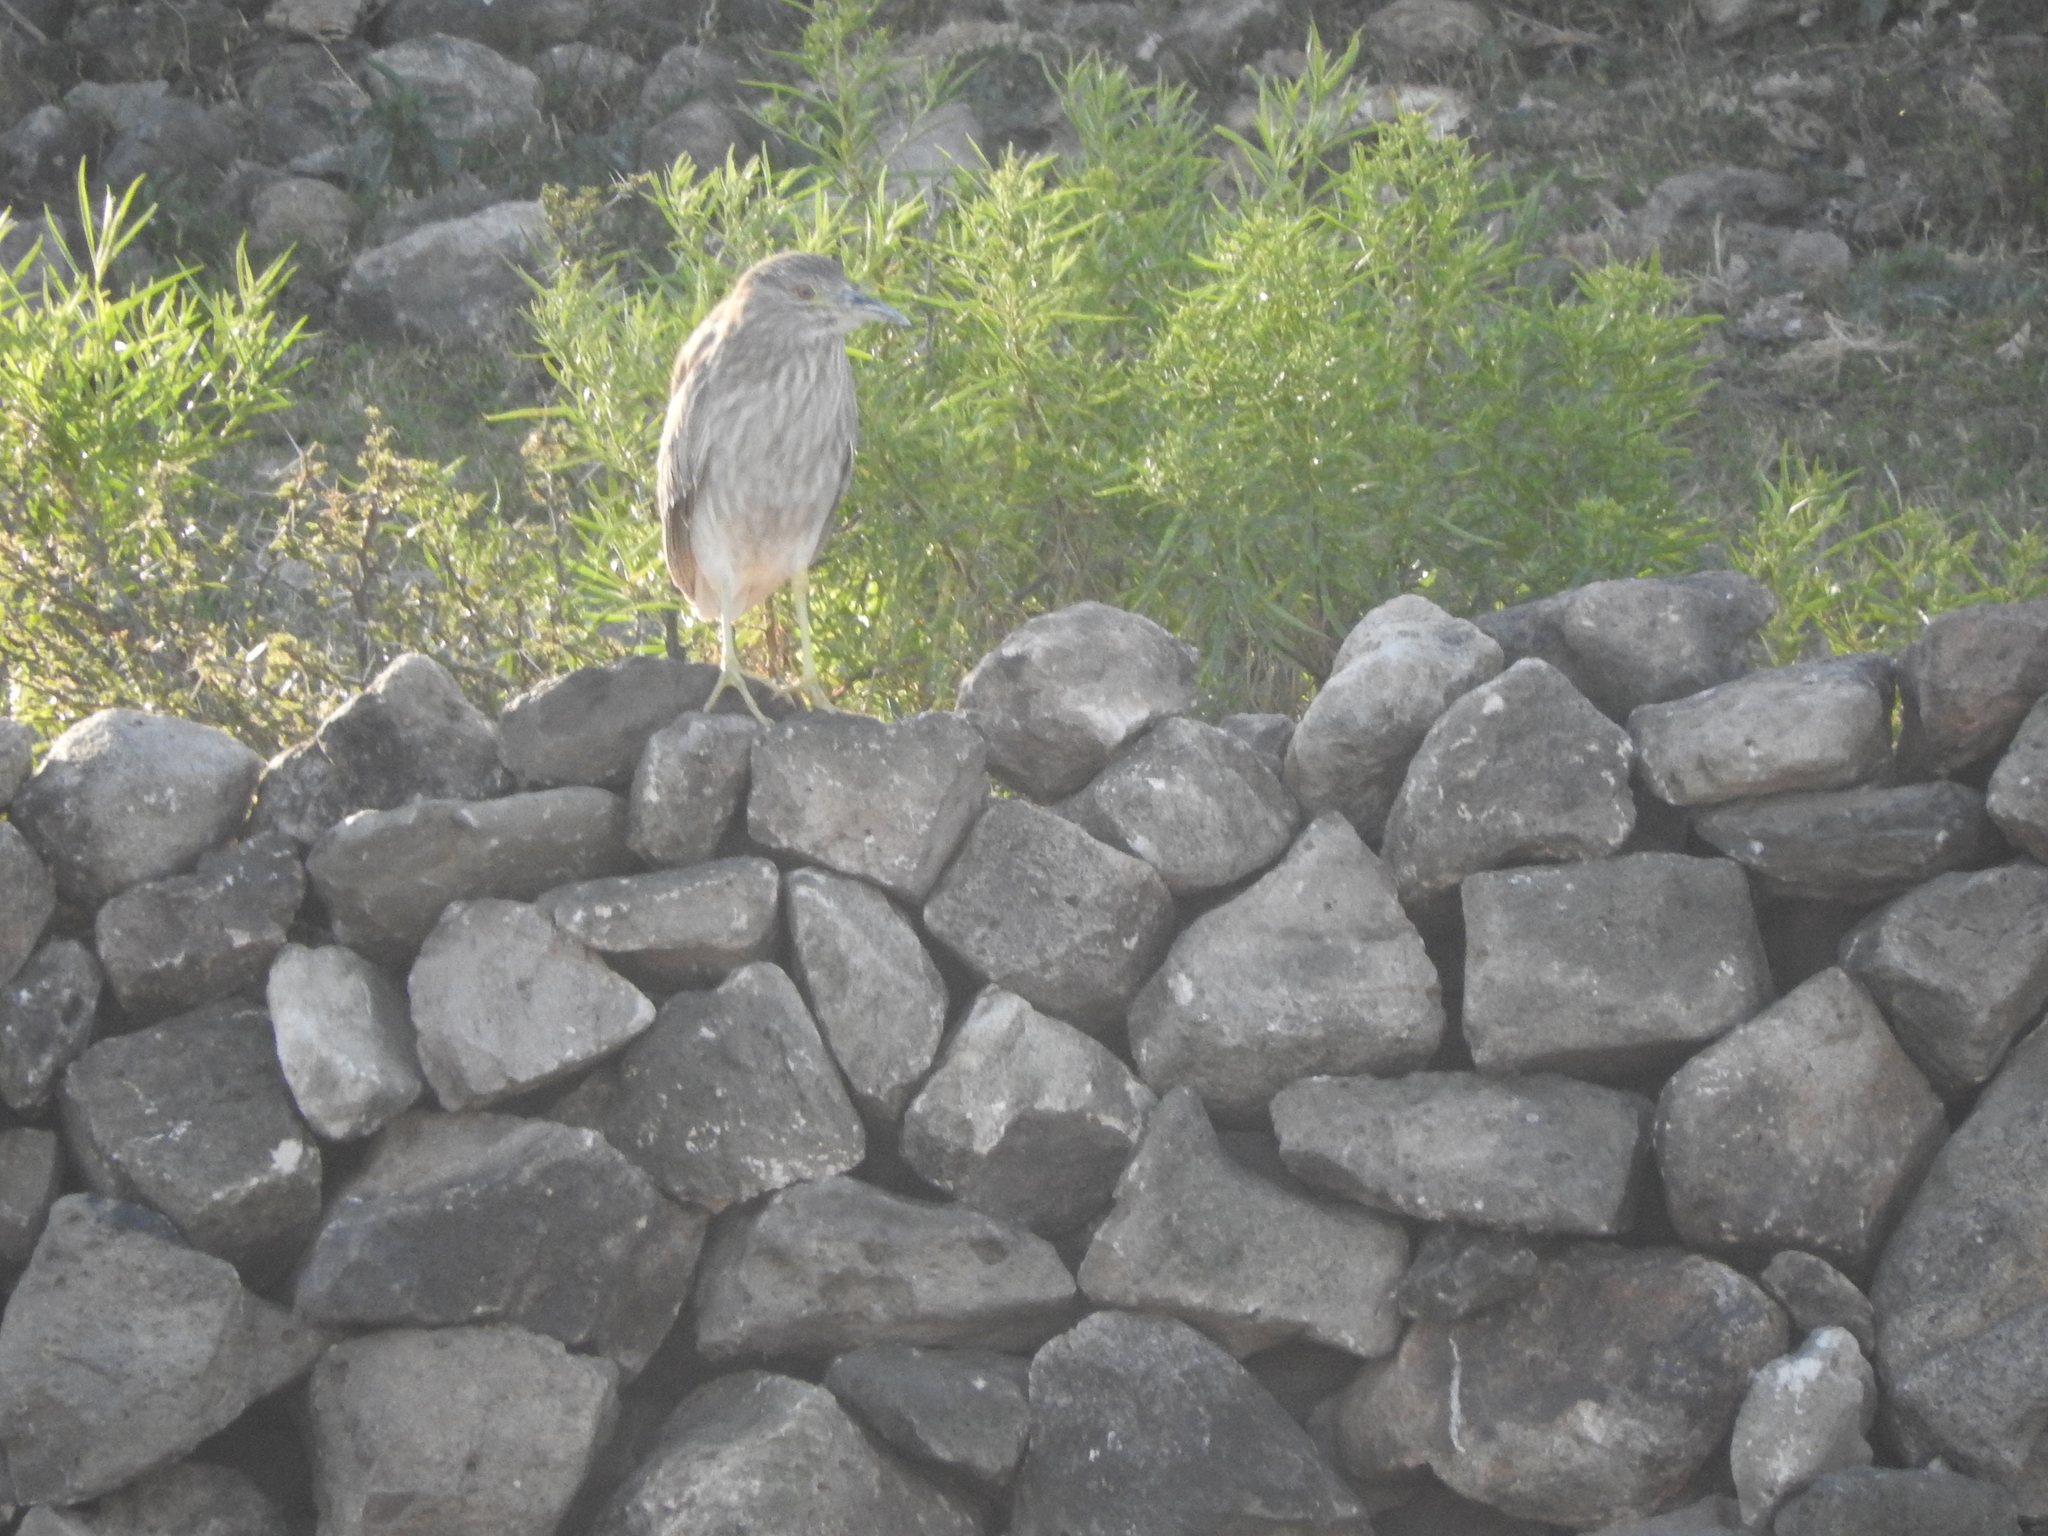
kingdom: Animalia
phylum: Chordata
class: Aves
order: Pelecaniformes
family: Ardeidae
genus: Nycticorax
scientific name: Nycticorax nycticorax
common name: Black-crowned night heron
